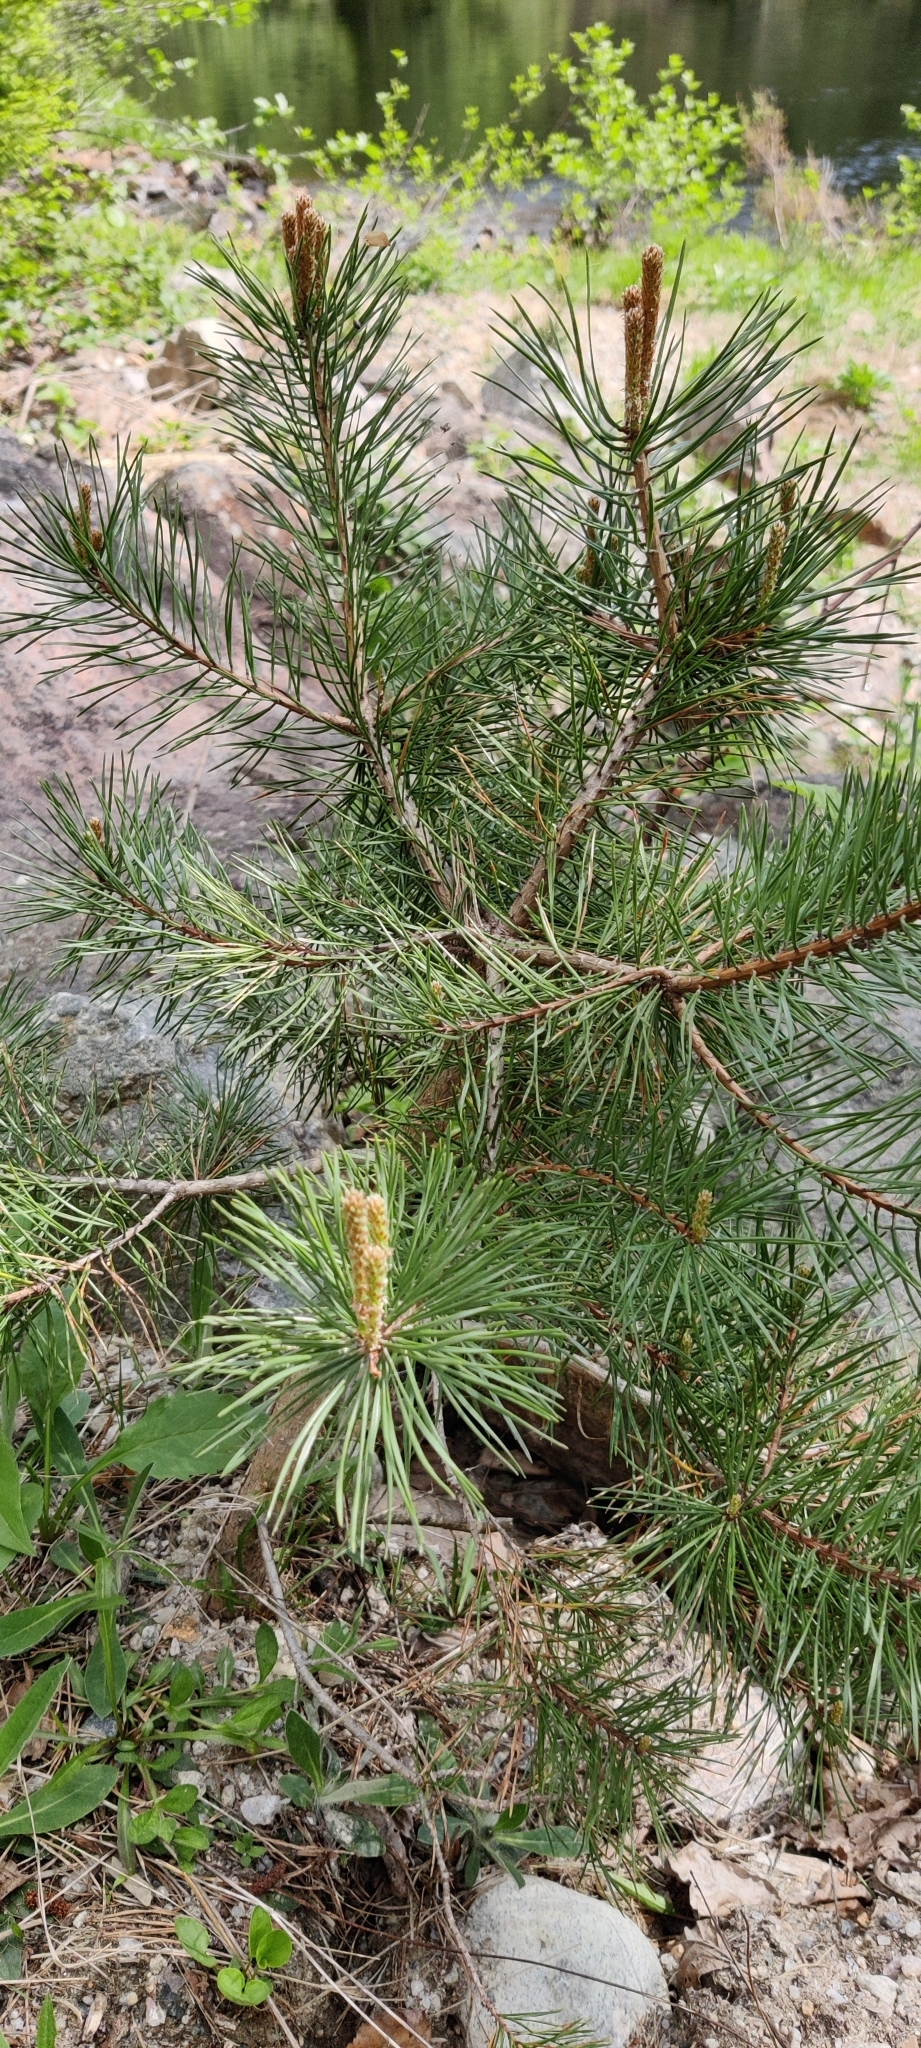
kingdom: Plantae
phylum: Tracheophyta
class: Pinopsida
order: Pinales
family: Pinaceae
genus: Pinus
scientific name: Pinus sylvestris
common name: Scots pine
